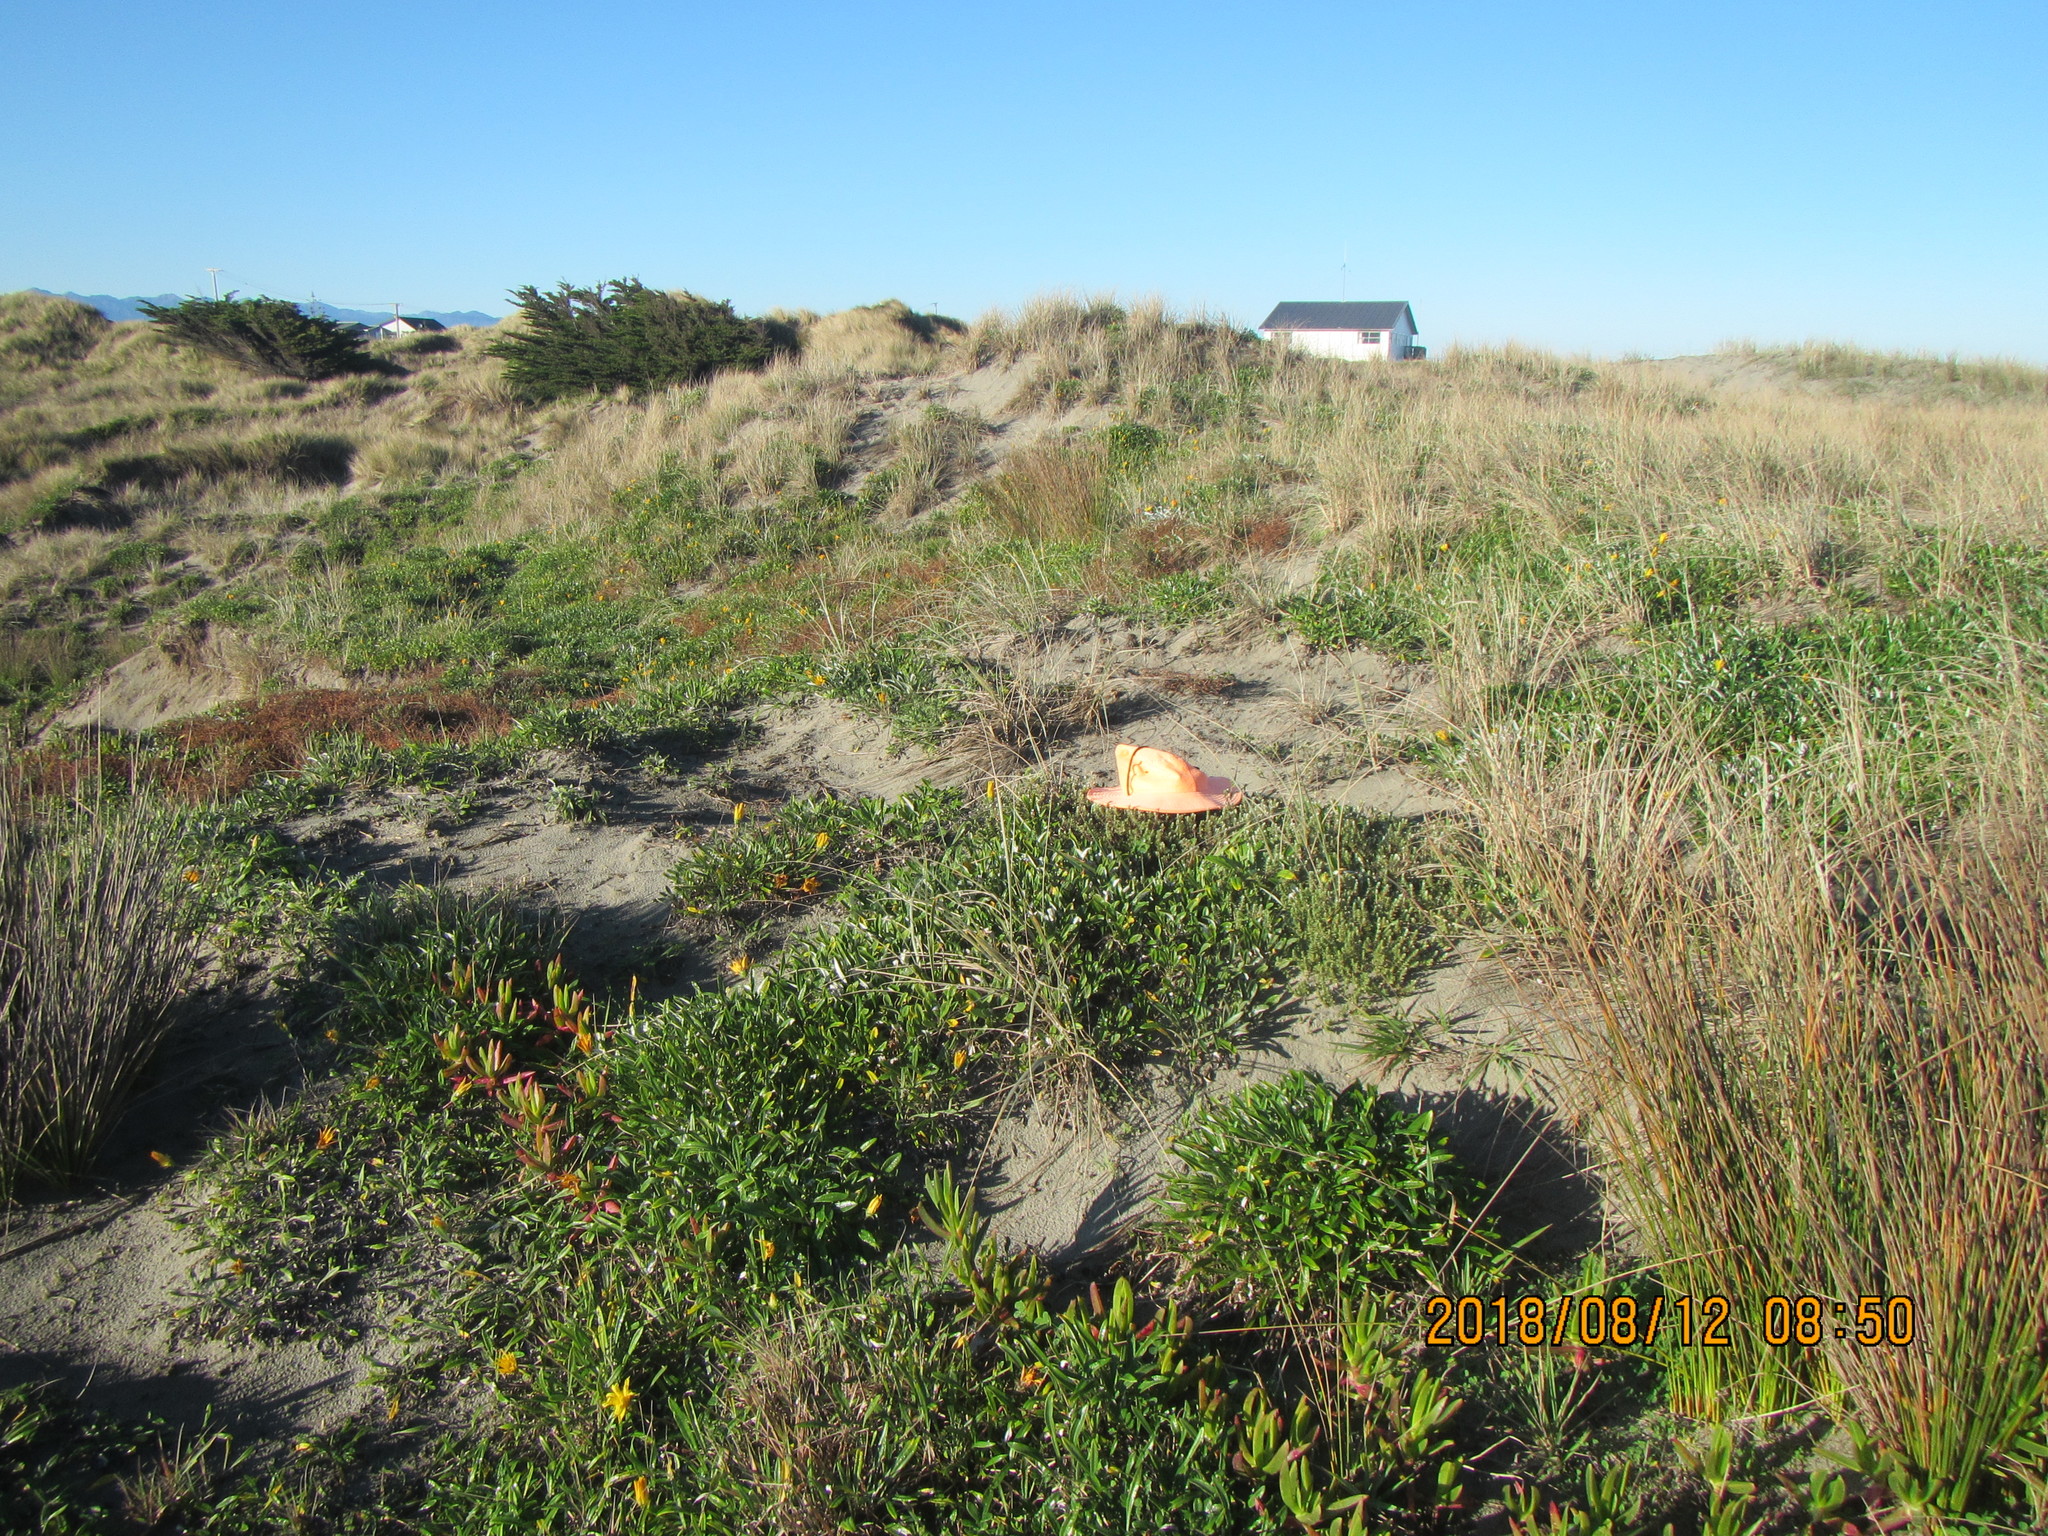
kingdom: Plantae
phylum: Tracheophyta
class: Magnoliopsida
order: Malvales
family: Thymelaeaceae
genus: Pimelea
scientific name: Pimelea villosa
